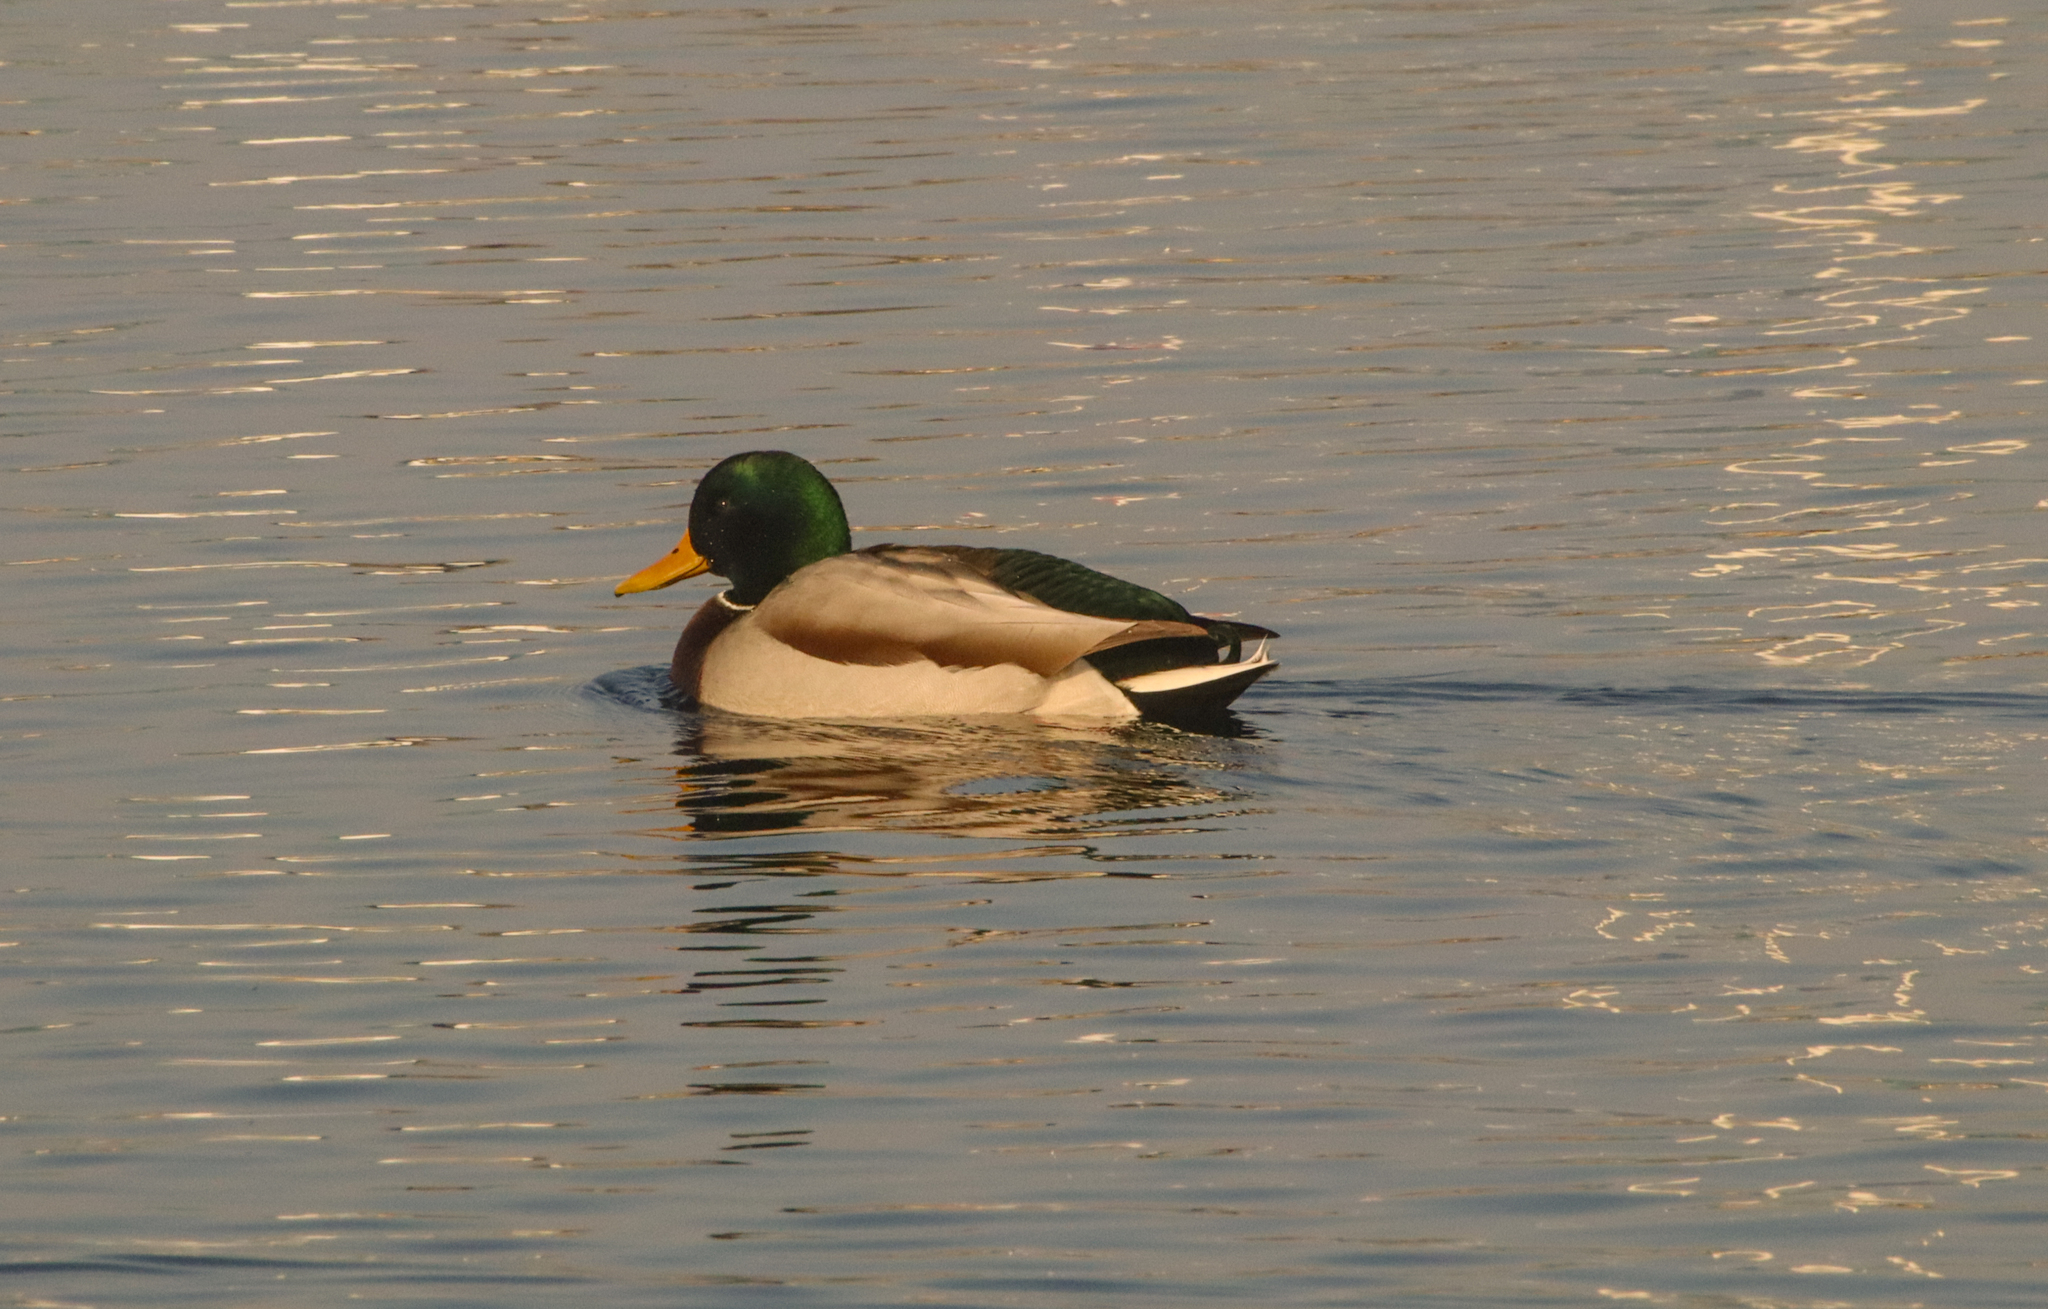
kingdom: Animalia
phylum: Chordata
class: Aves
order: Anseriformes
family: Anatidae
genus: Anas
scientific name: Anas platyrhynchos
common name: Mallard
